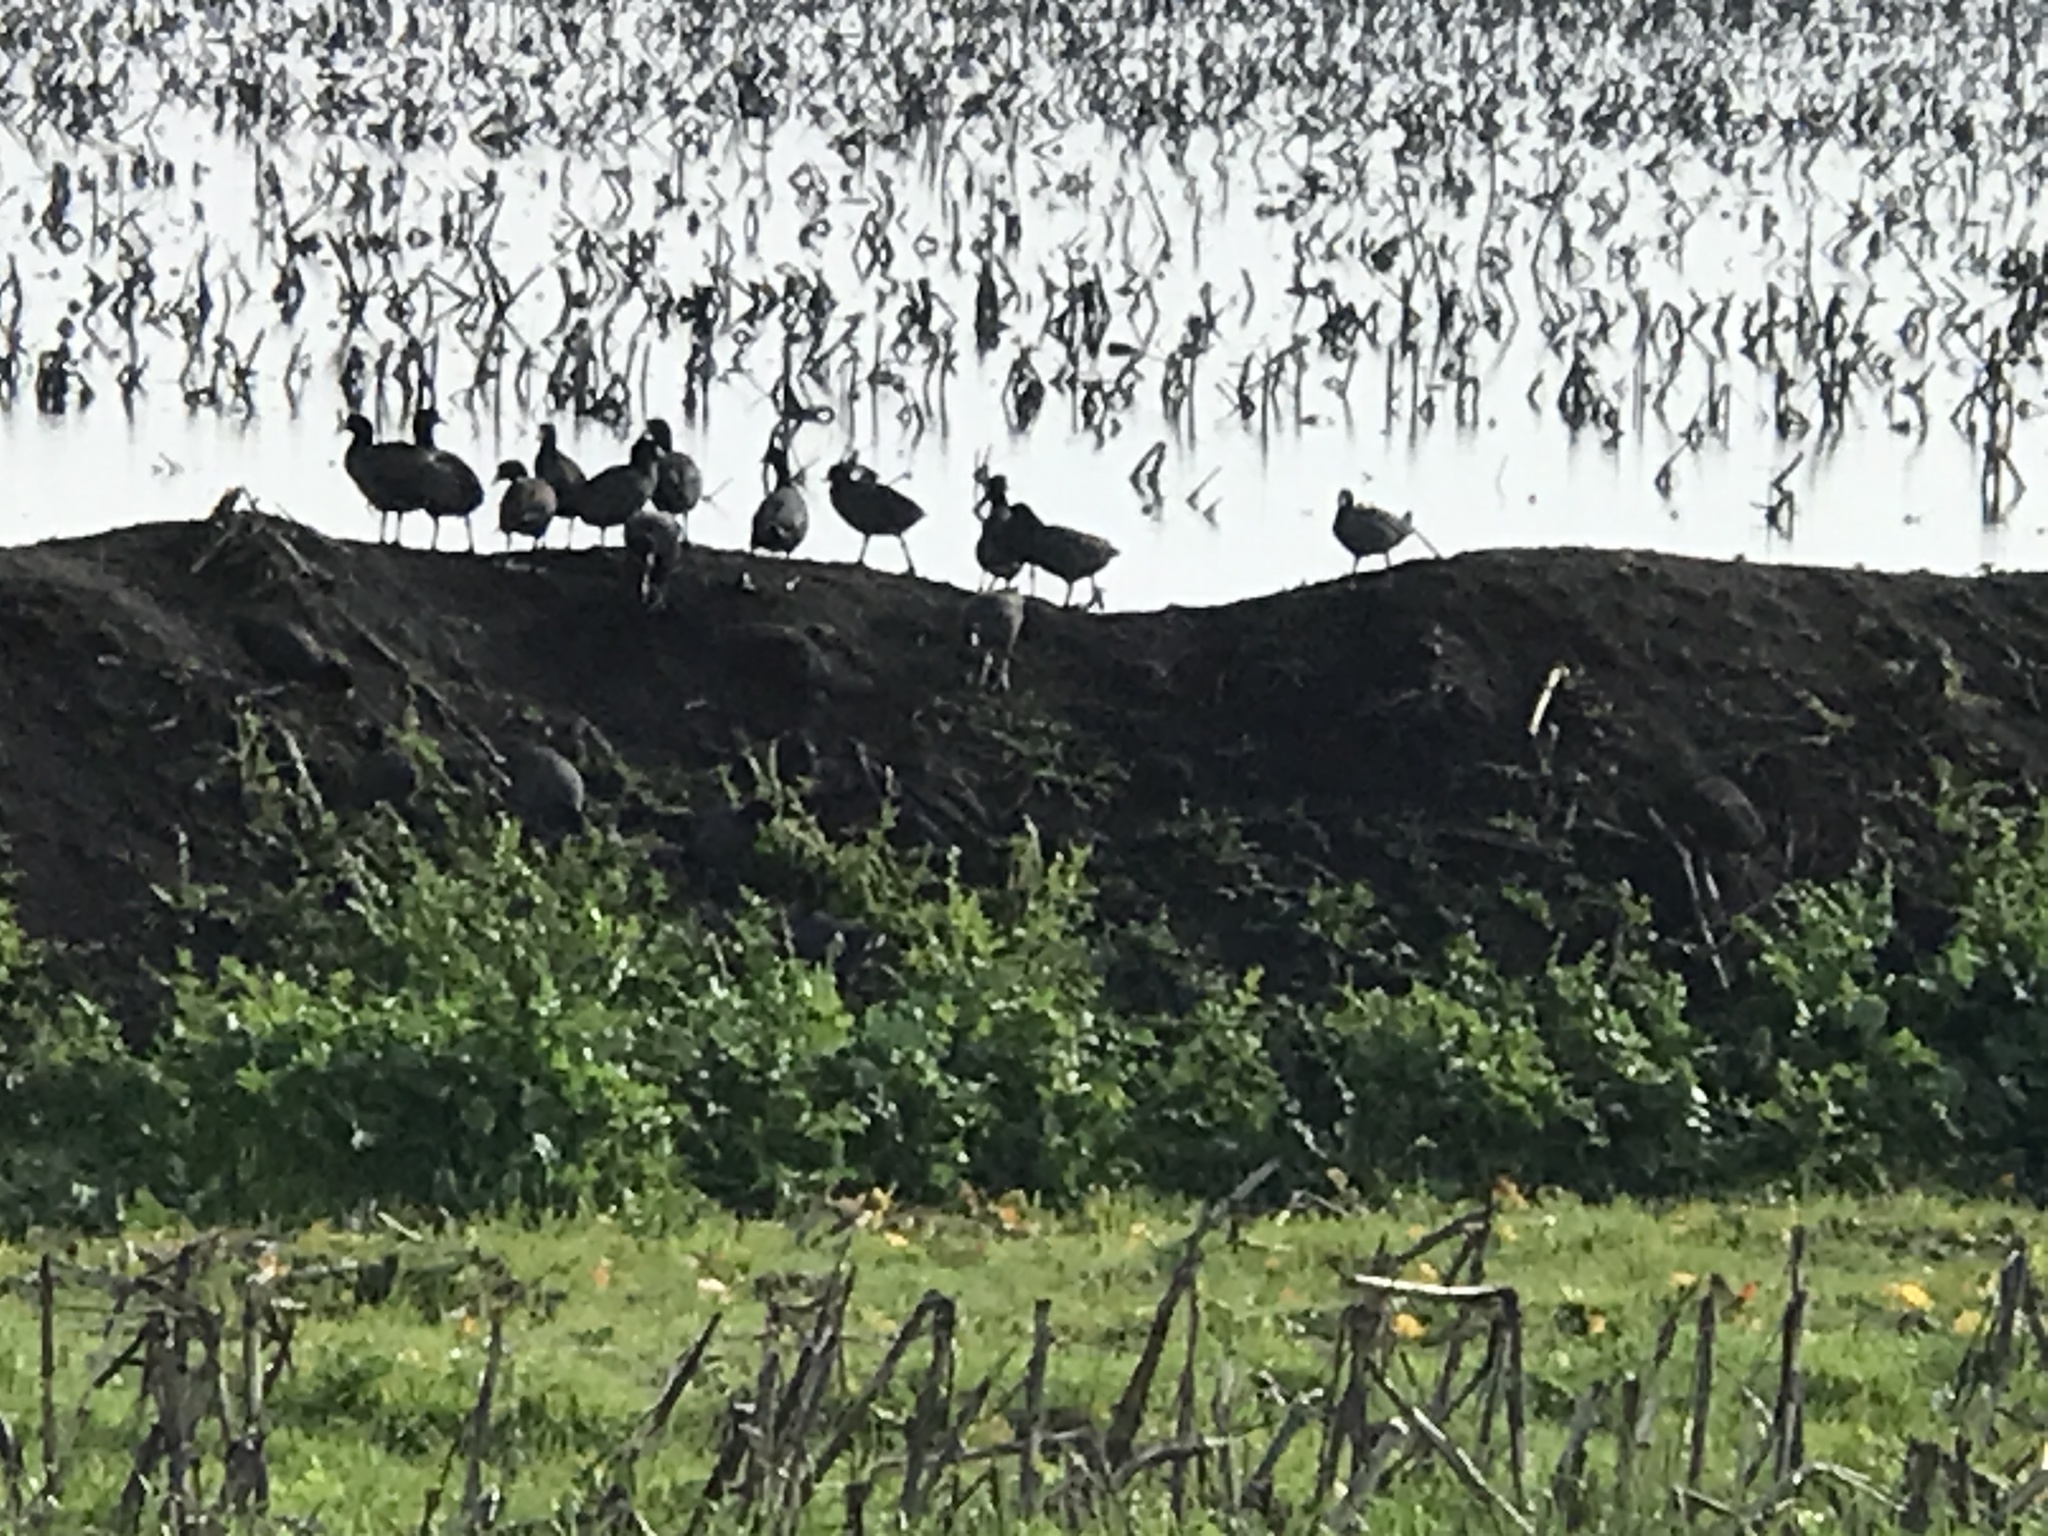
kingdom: Animalia
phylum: Chordata
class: Aves
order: Gruiformes
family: Rallidae
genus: Fulica
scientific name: Fulica americana
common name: American coot
